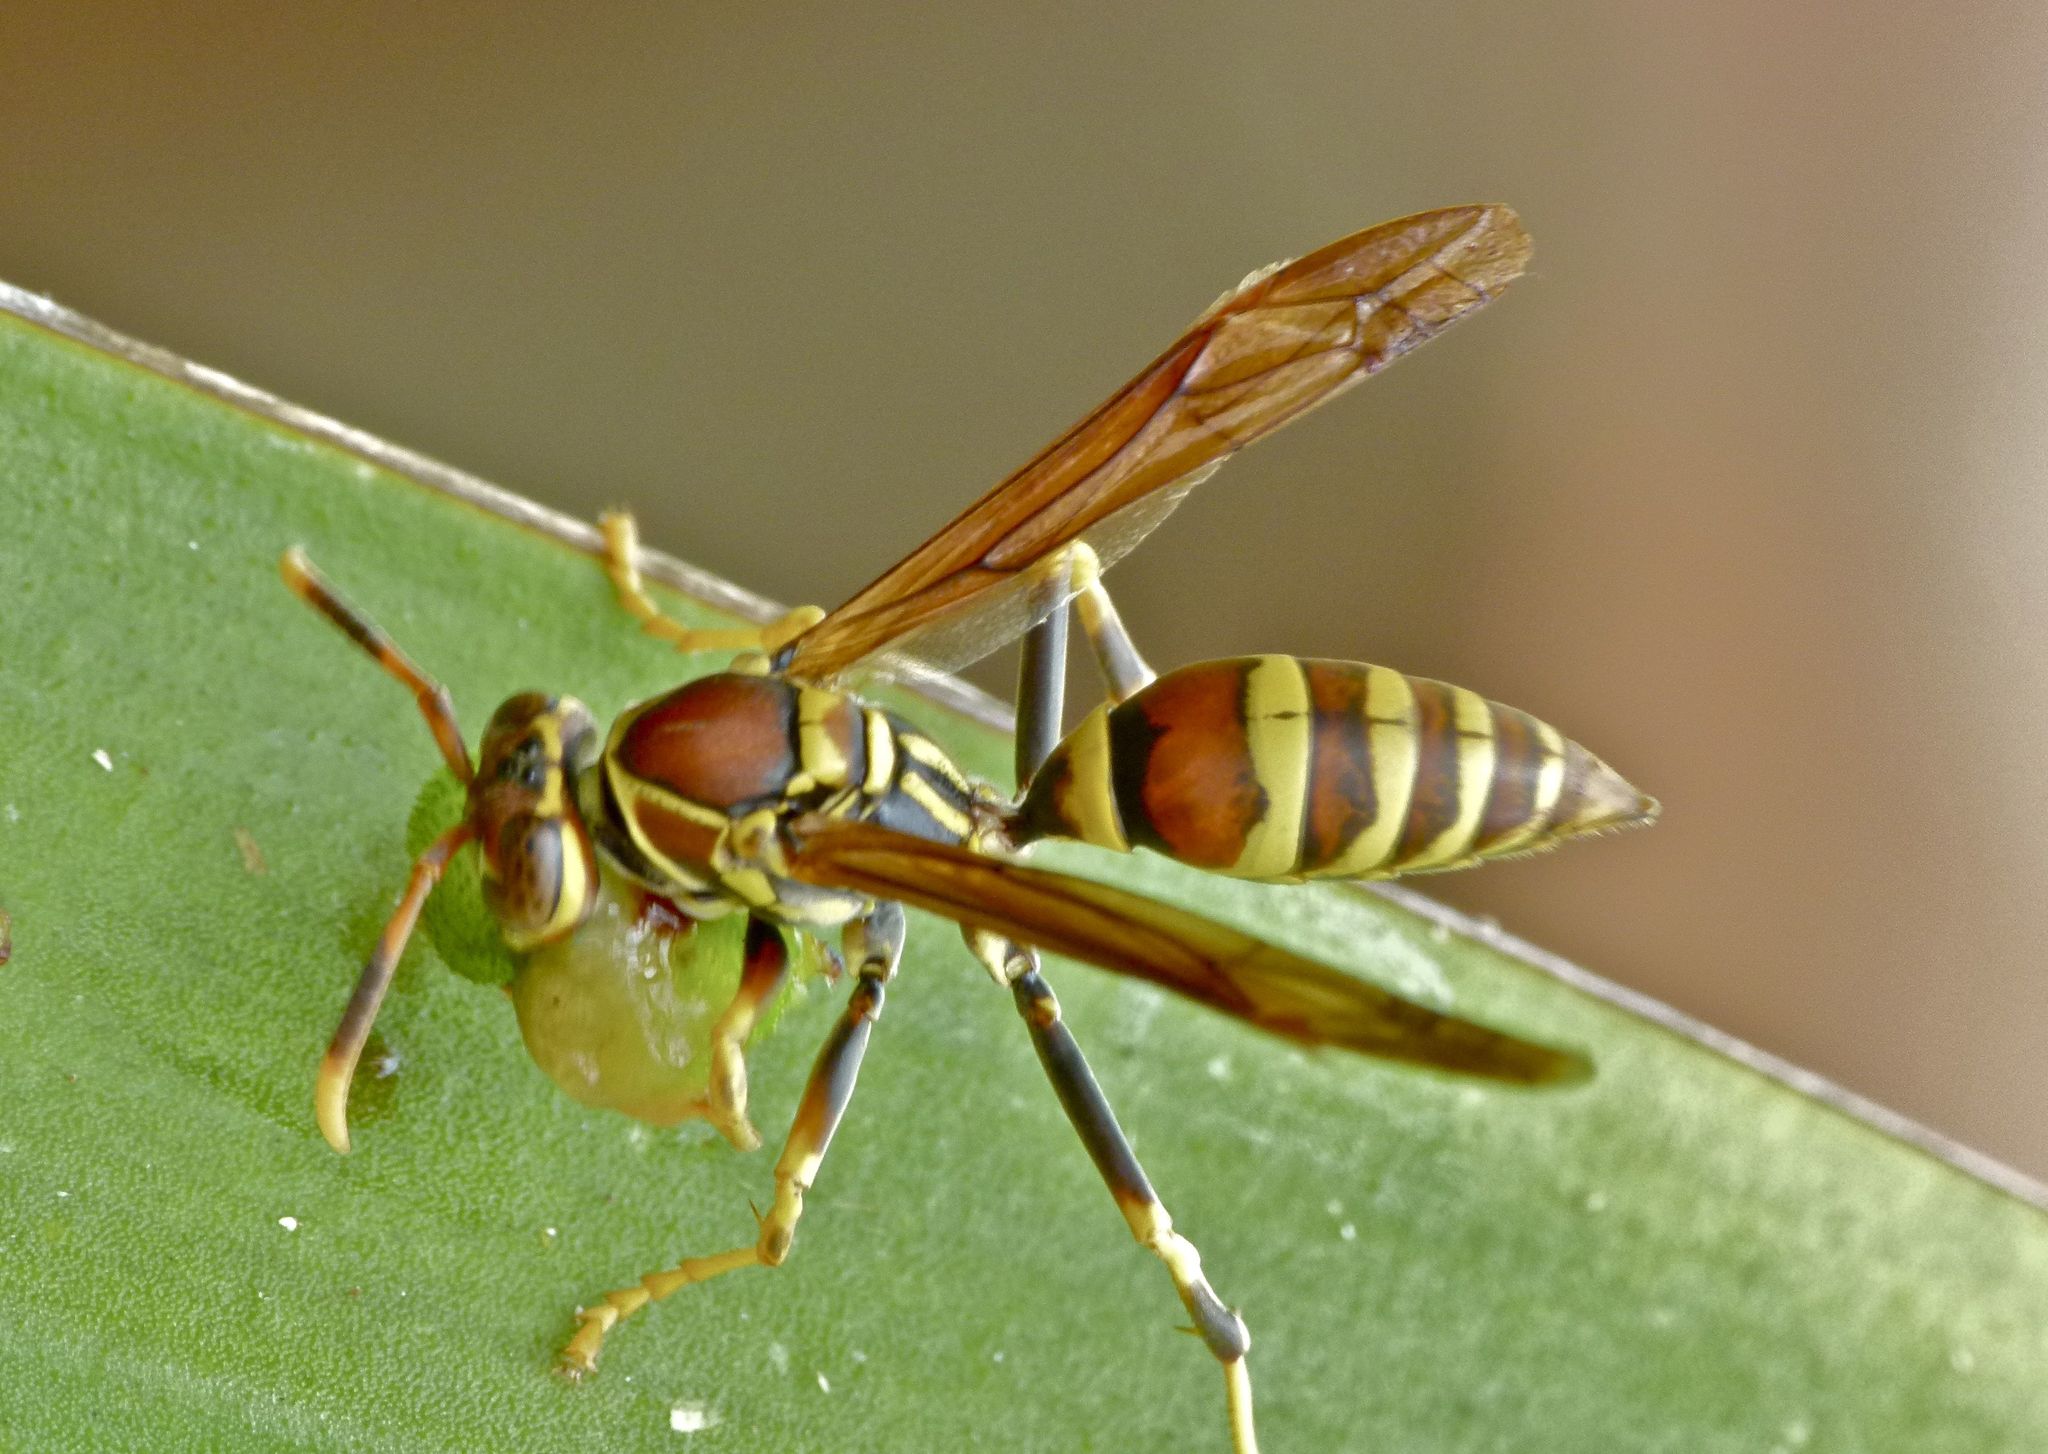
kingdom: Animalia
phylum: Arthropoda
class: Insecta
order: Hymenoptera
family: Eumenidae
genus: Polistes
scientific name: Polistes exclamans
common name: Paper wasp
